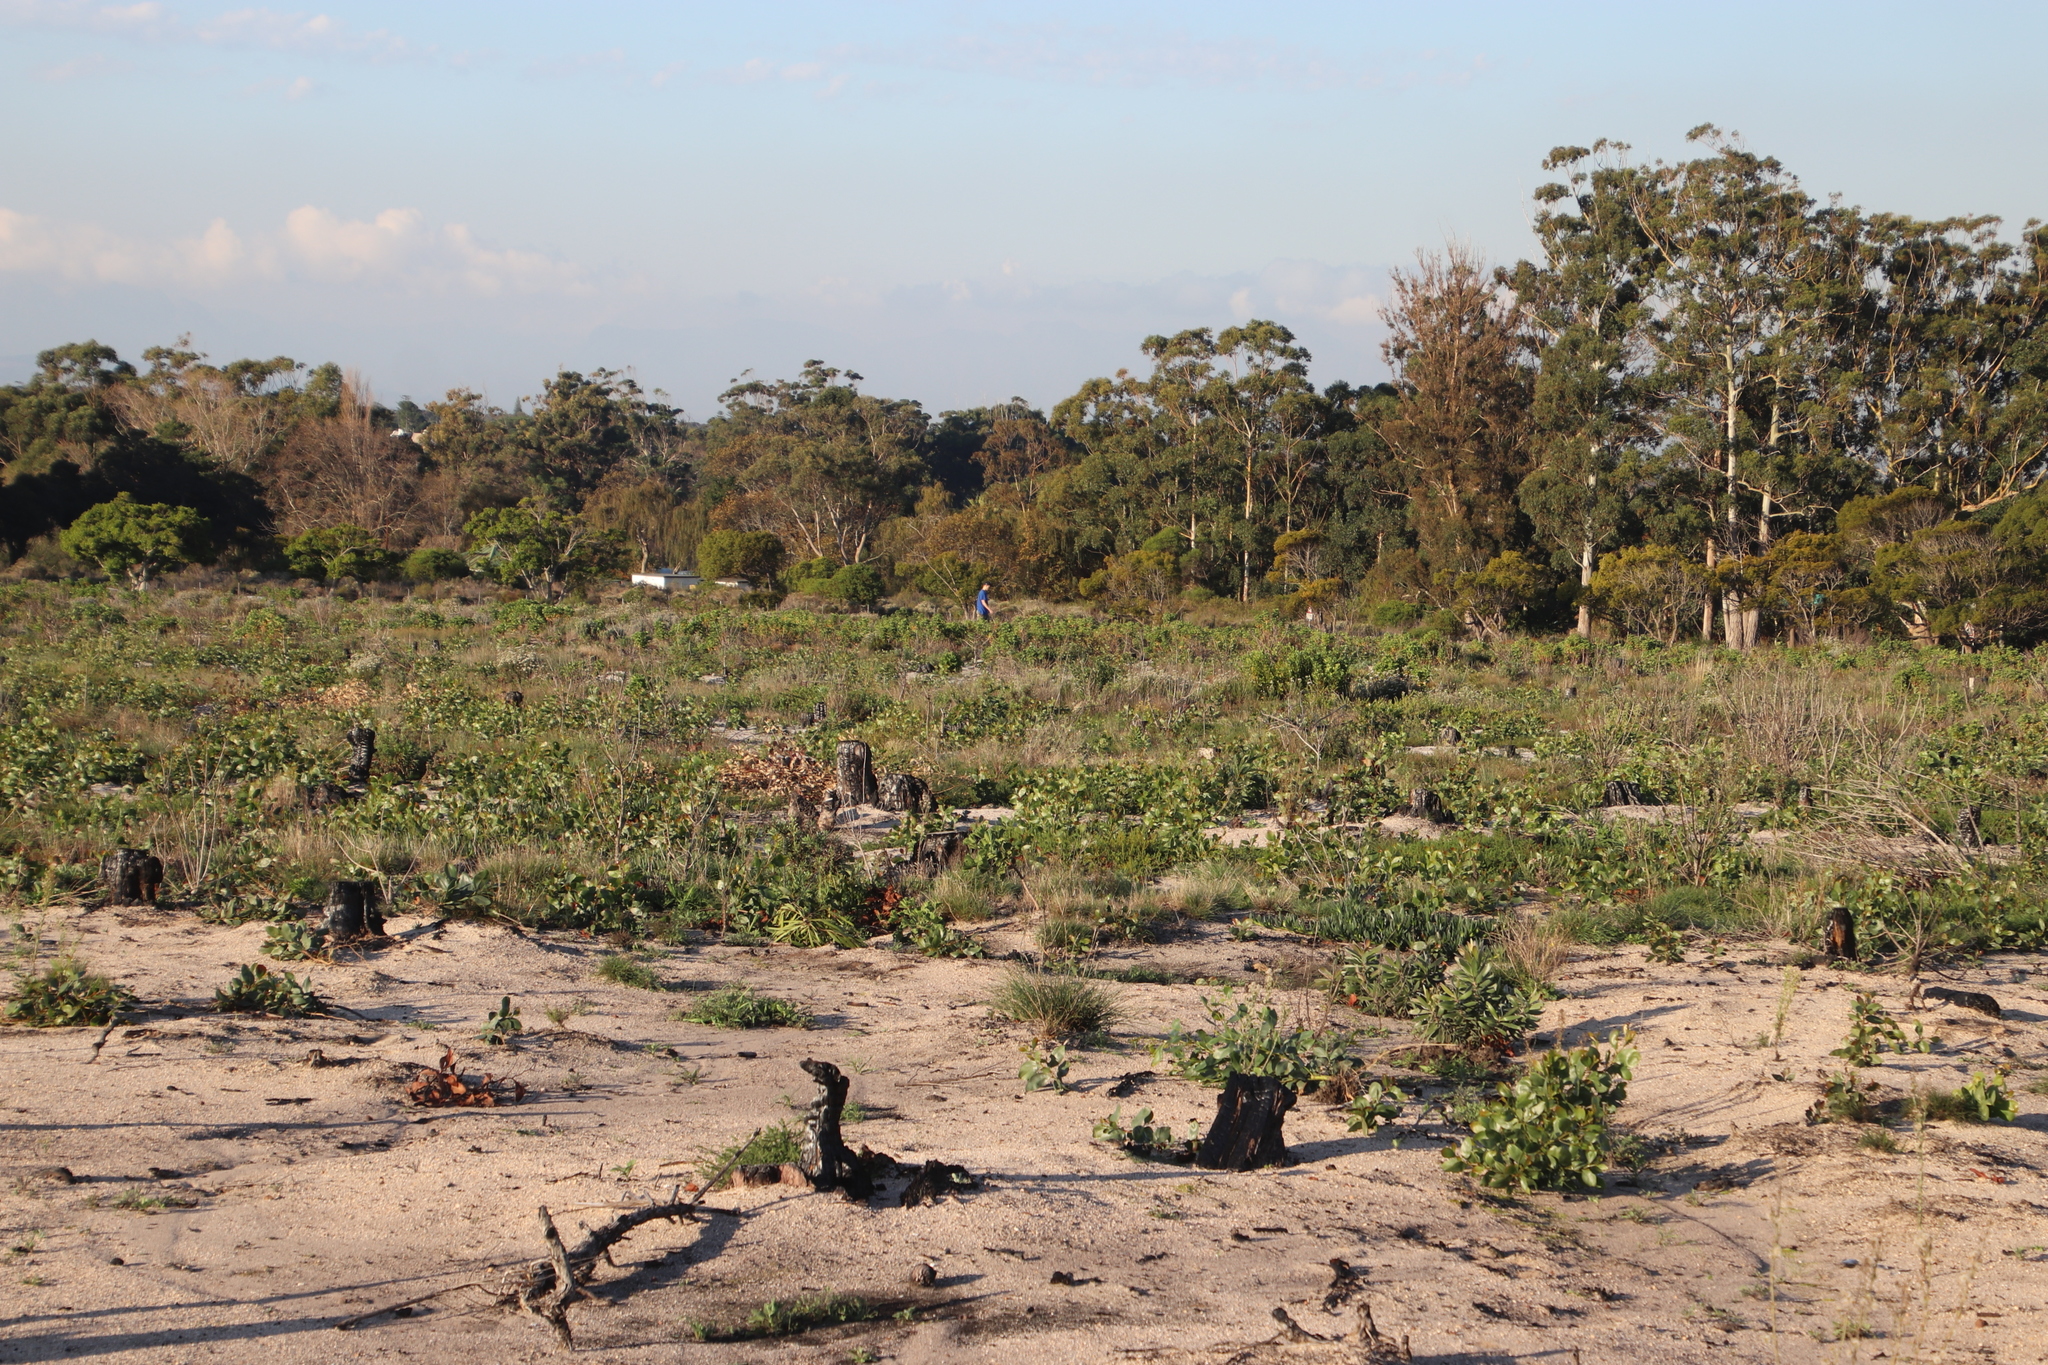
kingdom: Plantae
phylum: Tracheophyta
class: Magnoliopsida
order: Fabales
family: Fabaceae
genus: Acacia
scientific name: Acacia pycnantha
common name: Golden wattle
